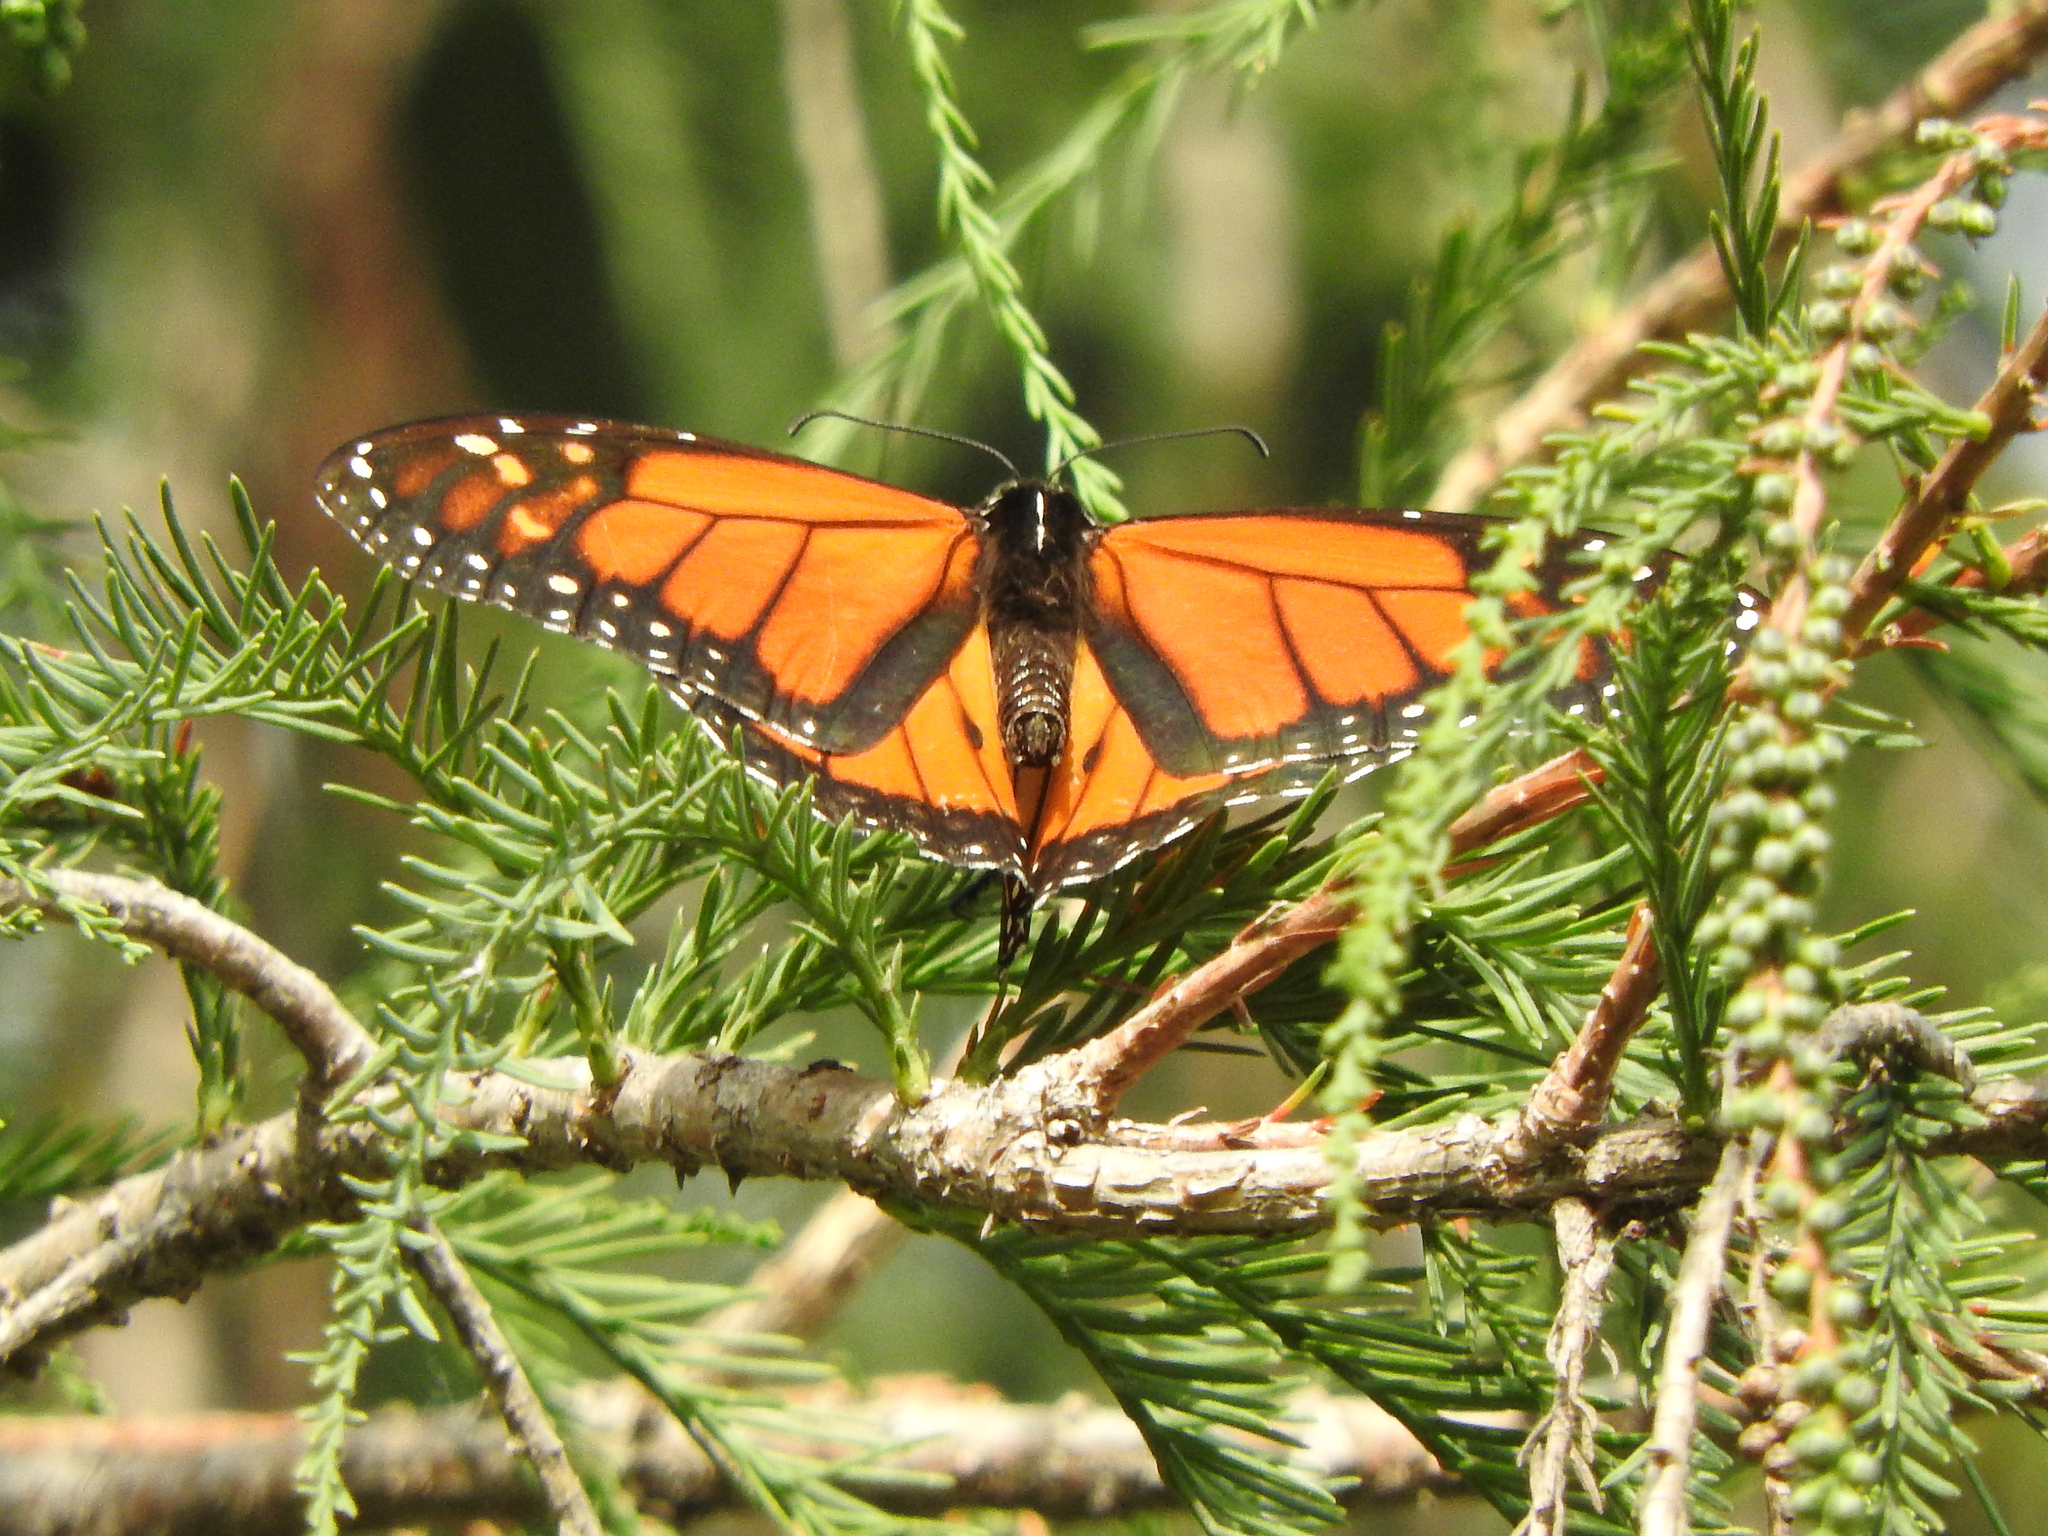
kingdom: Animalia
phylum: Arthropoda
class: Insecta
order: Lepidoptera
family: Nymphalidae
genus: Danaus
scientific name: Danaus plexippus
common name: Monarch
